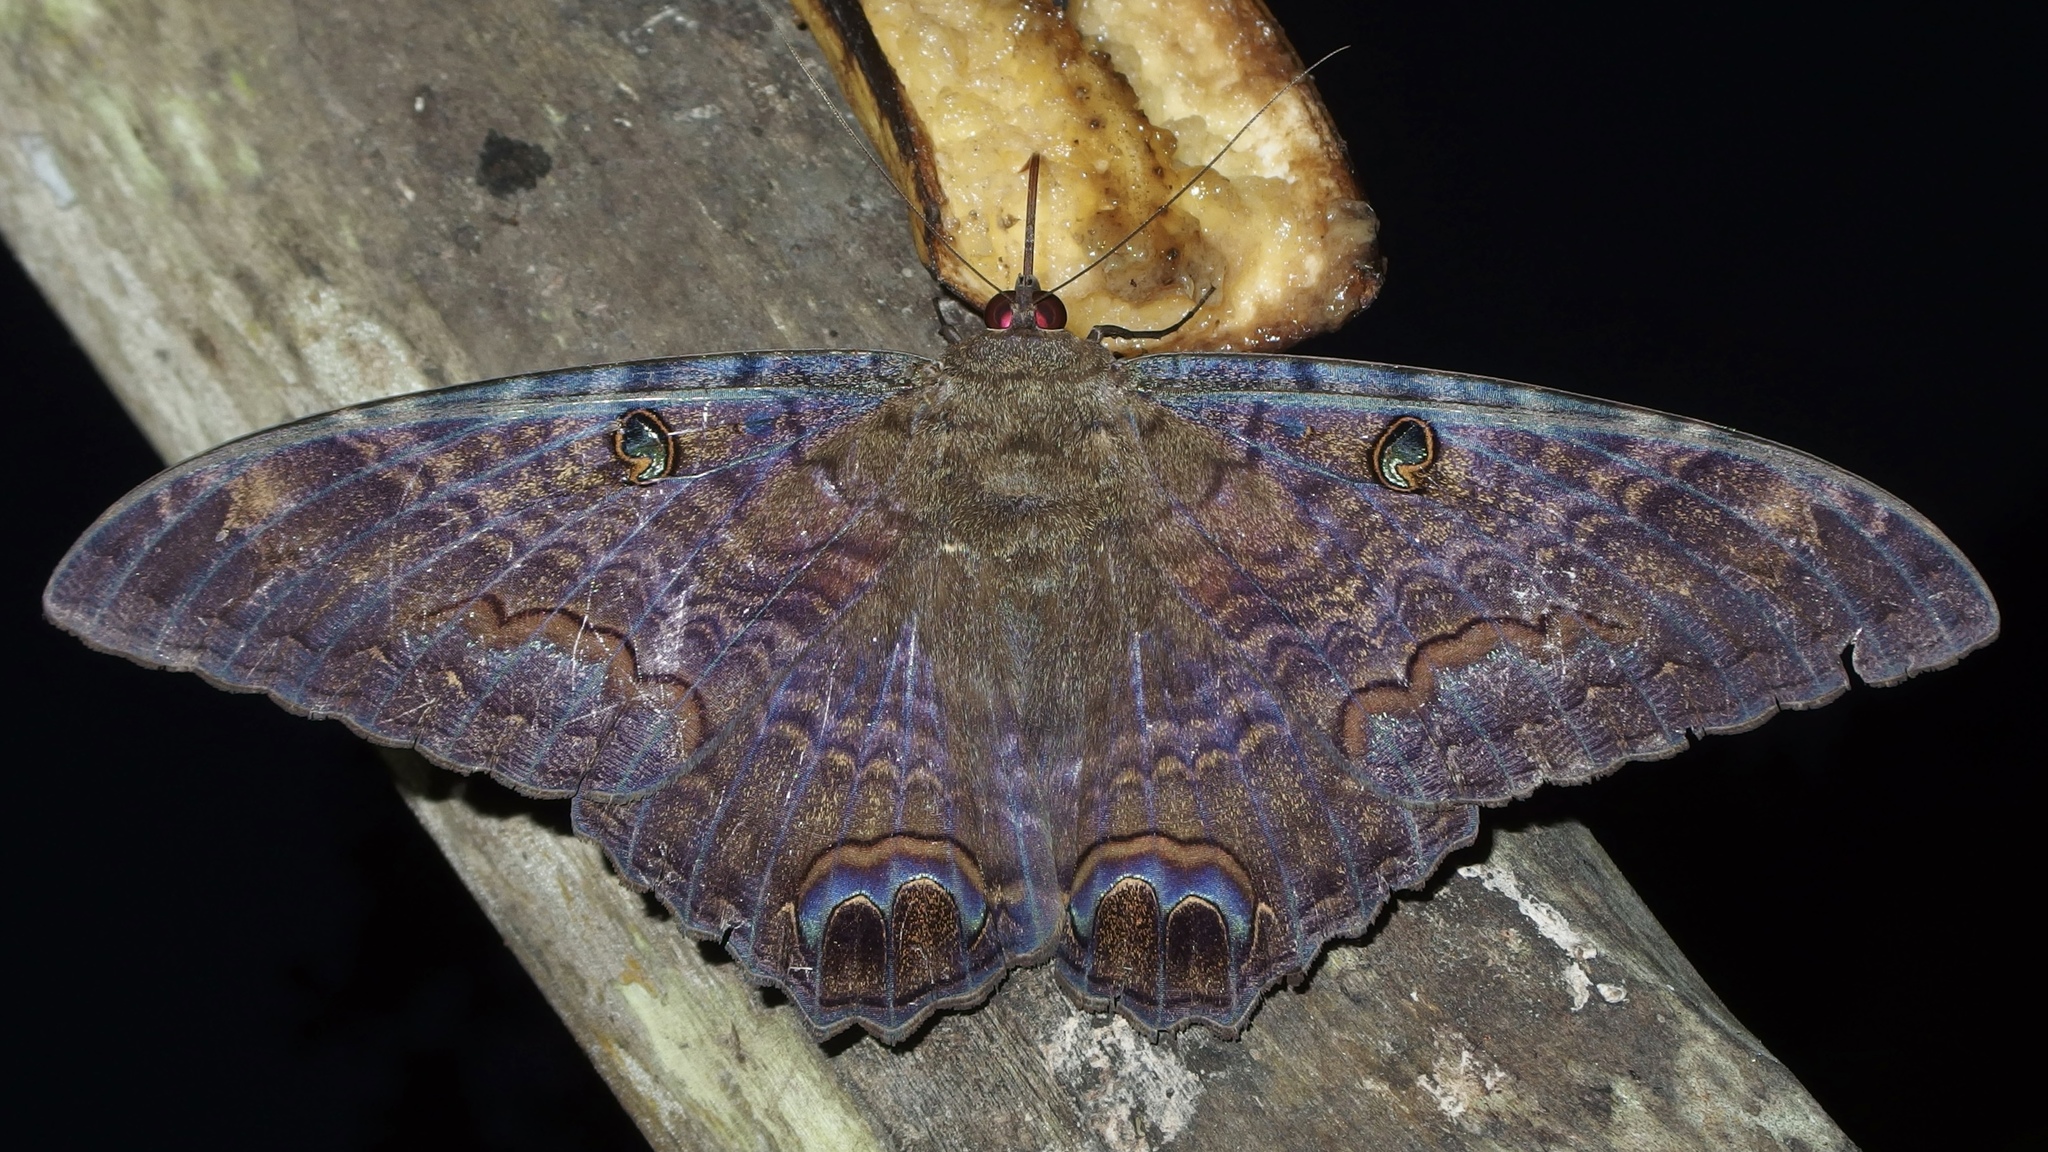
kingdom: Animalia
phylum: Arthropoda
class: Insecta
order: Lepidoptera
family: Erebidae
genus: Ascalapha
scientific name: Ascalapha odorata
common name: Black witch
